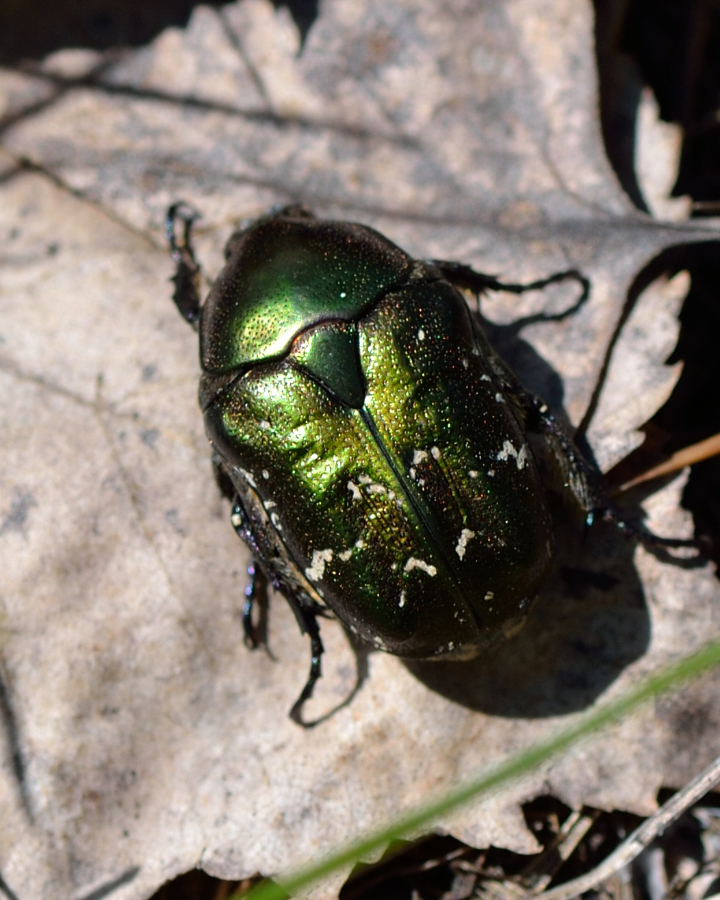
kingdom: Animalia
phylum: Arthropoda
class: Insecta
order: Coleoptera
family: Scarabaeidae
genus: Protaetia
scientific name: Protaetia cuprea
